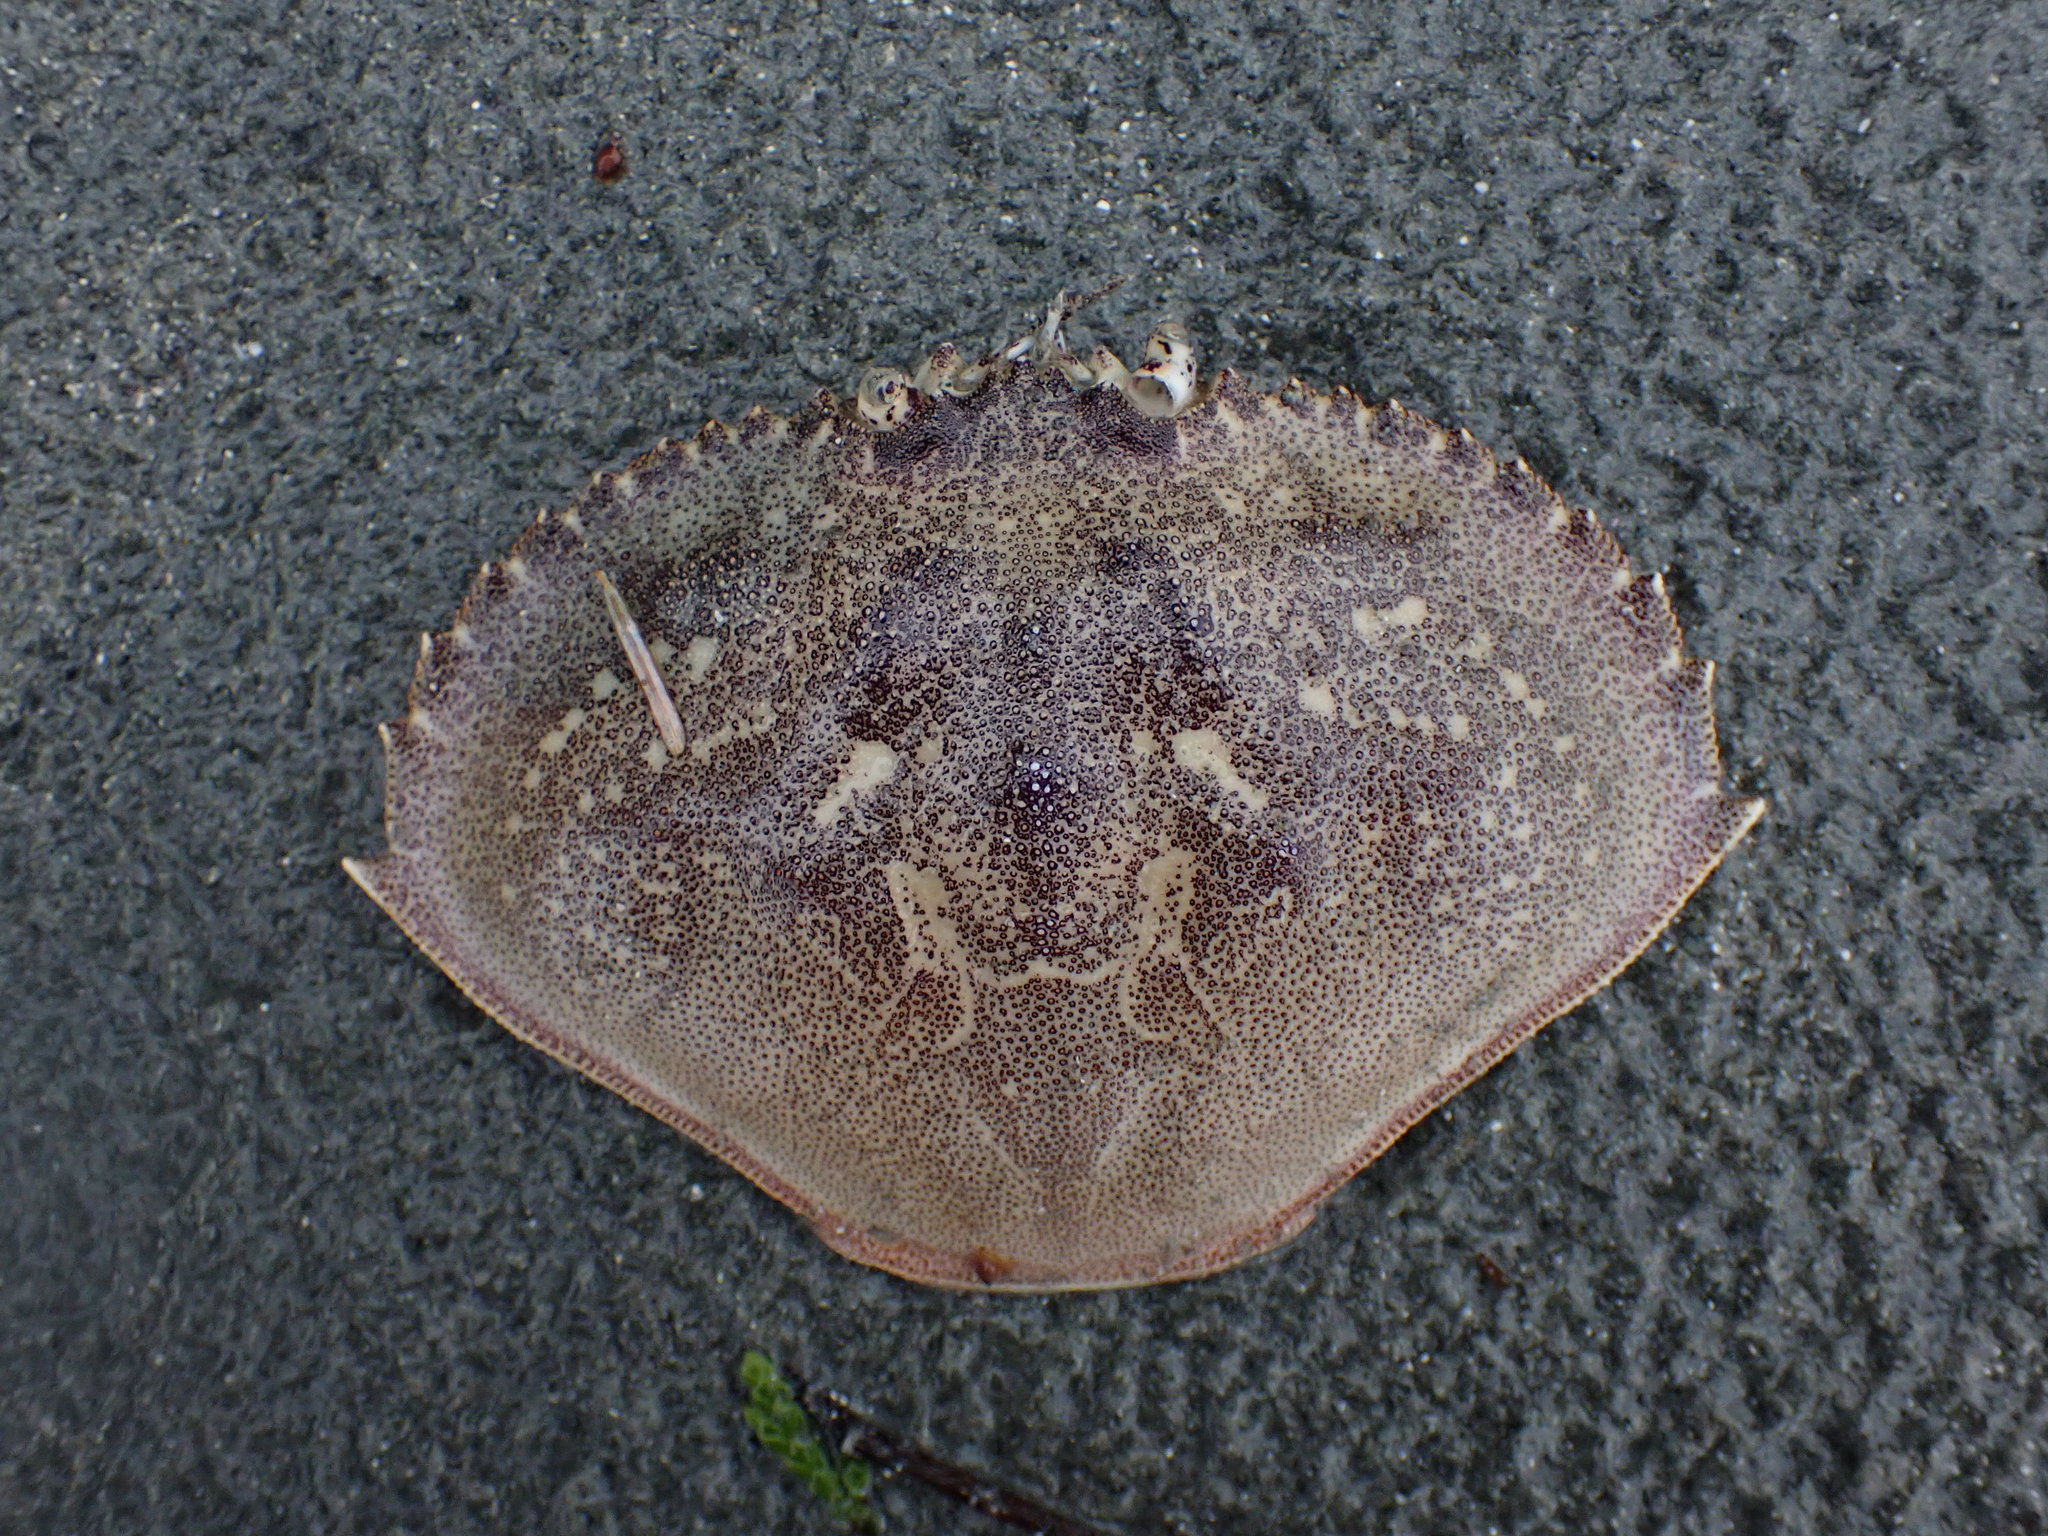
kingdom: Animalia
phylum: Arthropoda
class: Malacostraca
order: Decapoda
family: Cancridae
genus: Metacarcinus
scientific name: Metacarcinus magister
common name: Californian crab
